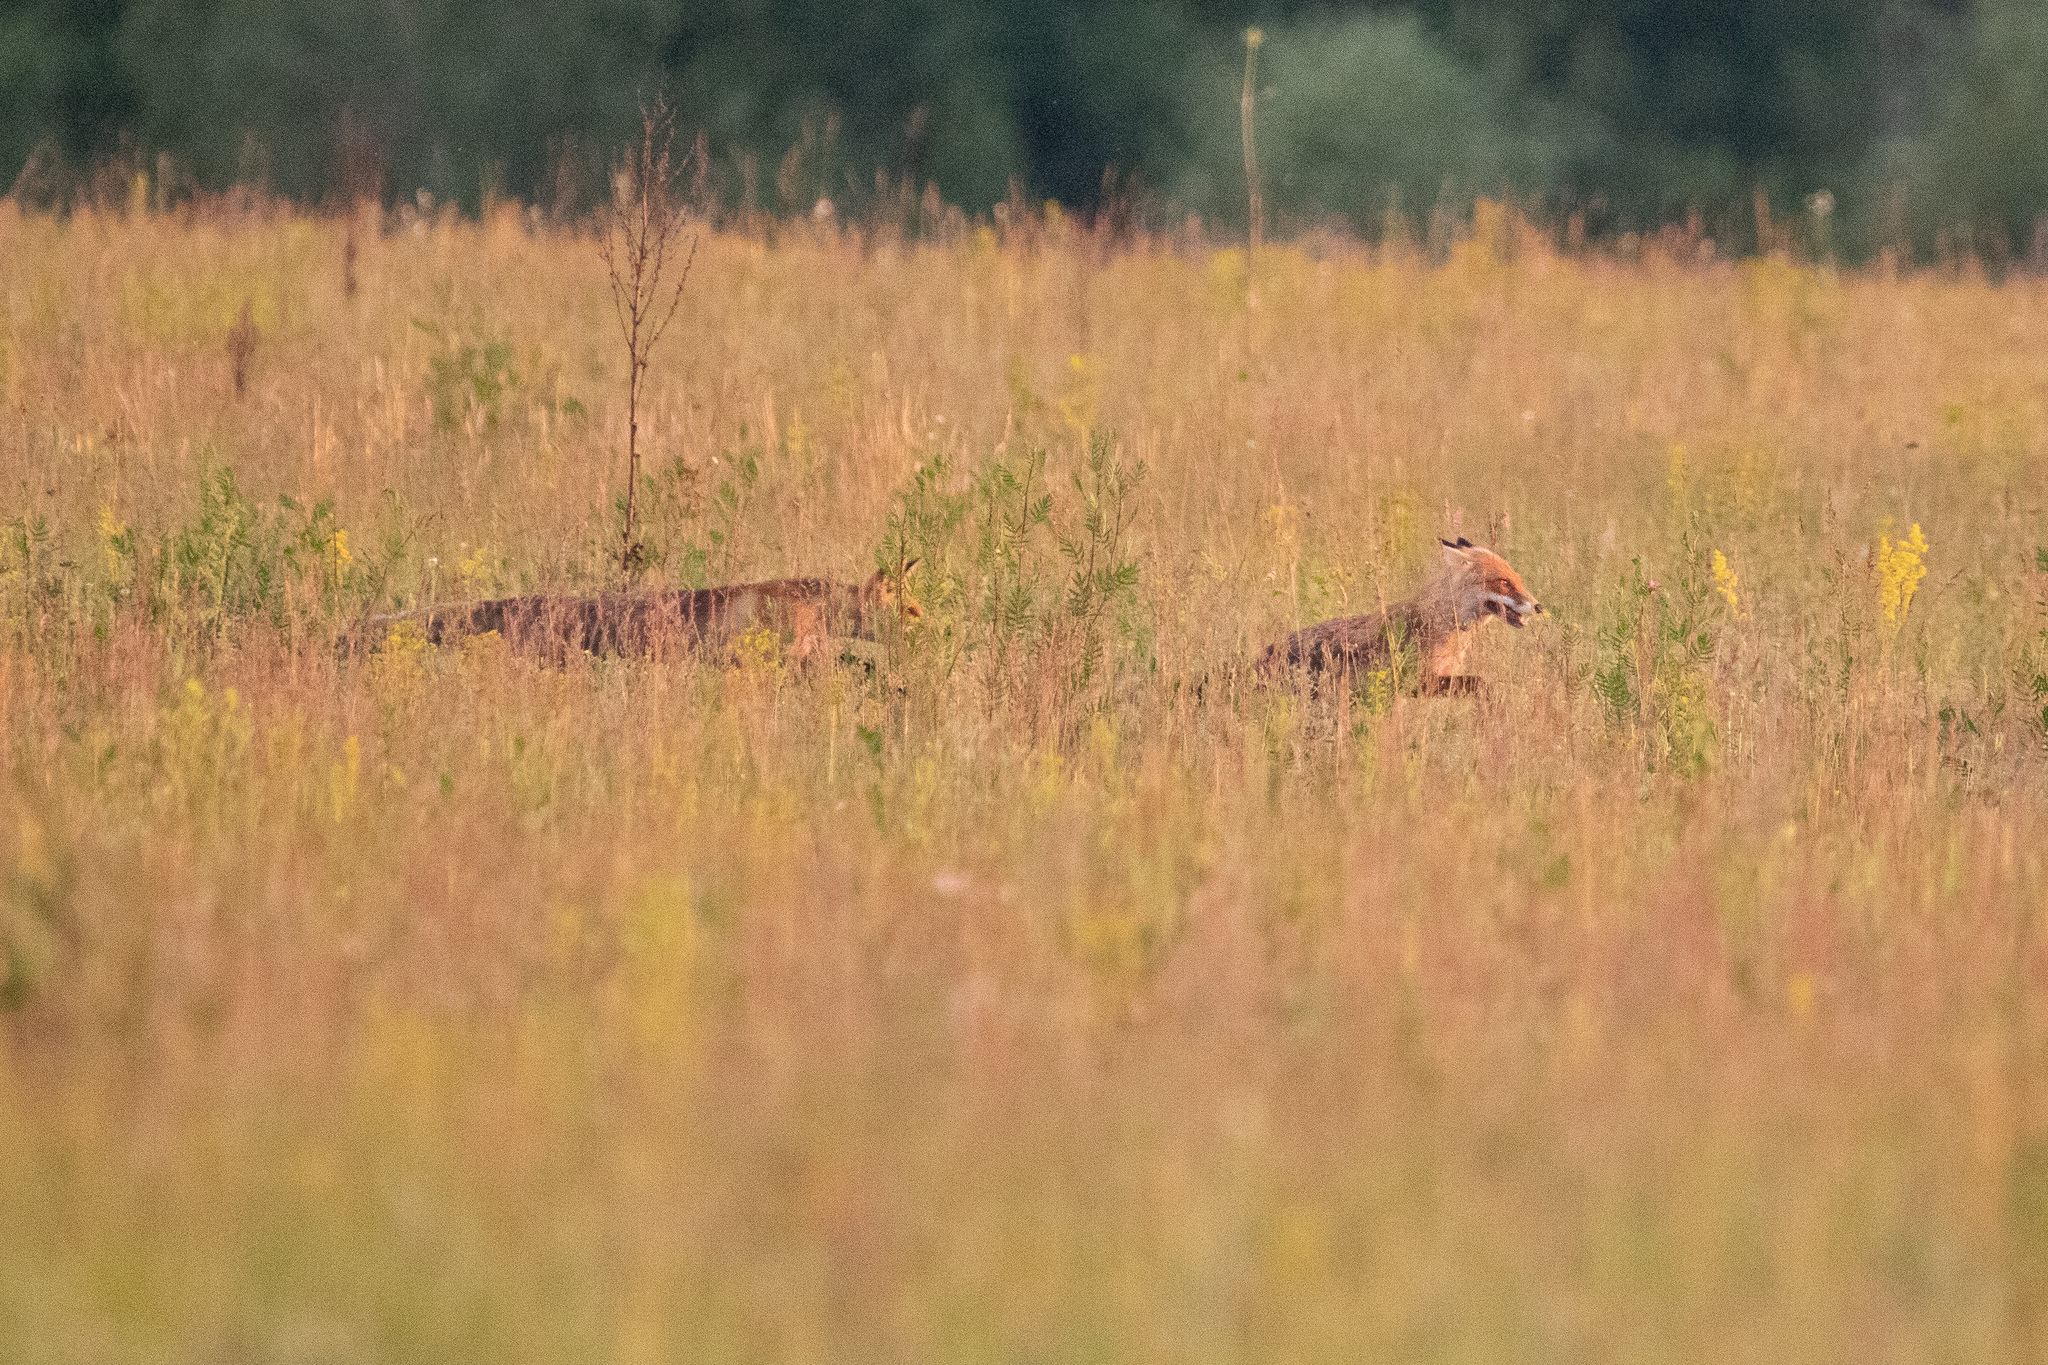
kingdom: Animalia
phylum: Chordata
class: Mammalia
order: Carnivora
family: Canidae
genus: Vulpes
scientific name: Vulpes vulpes
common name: Red fox
